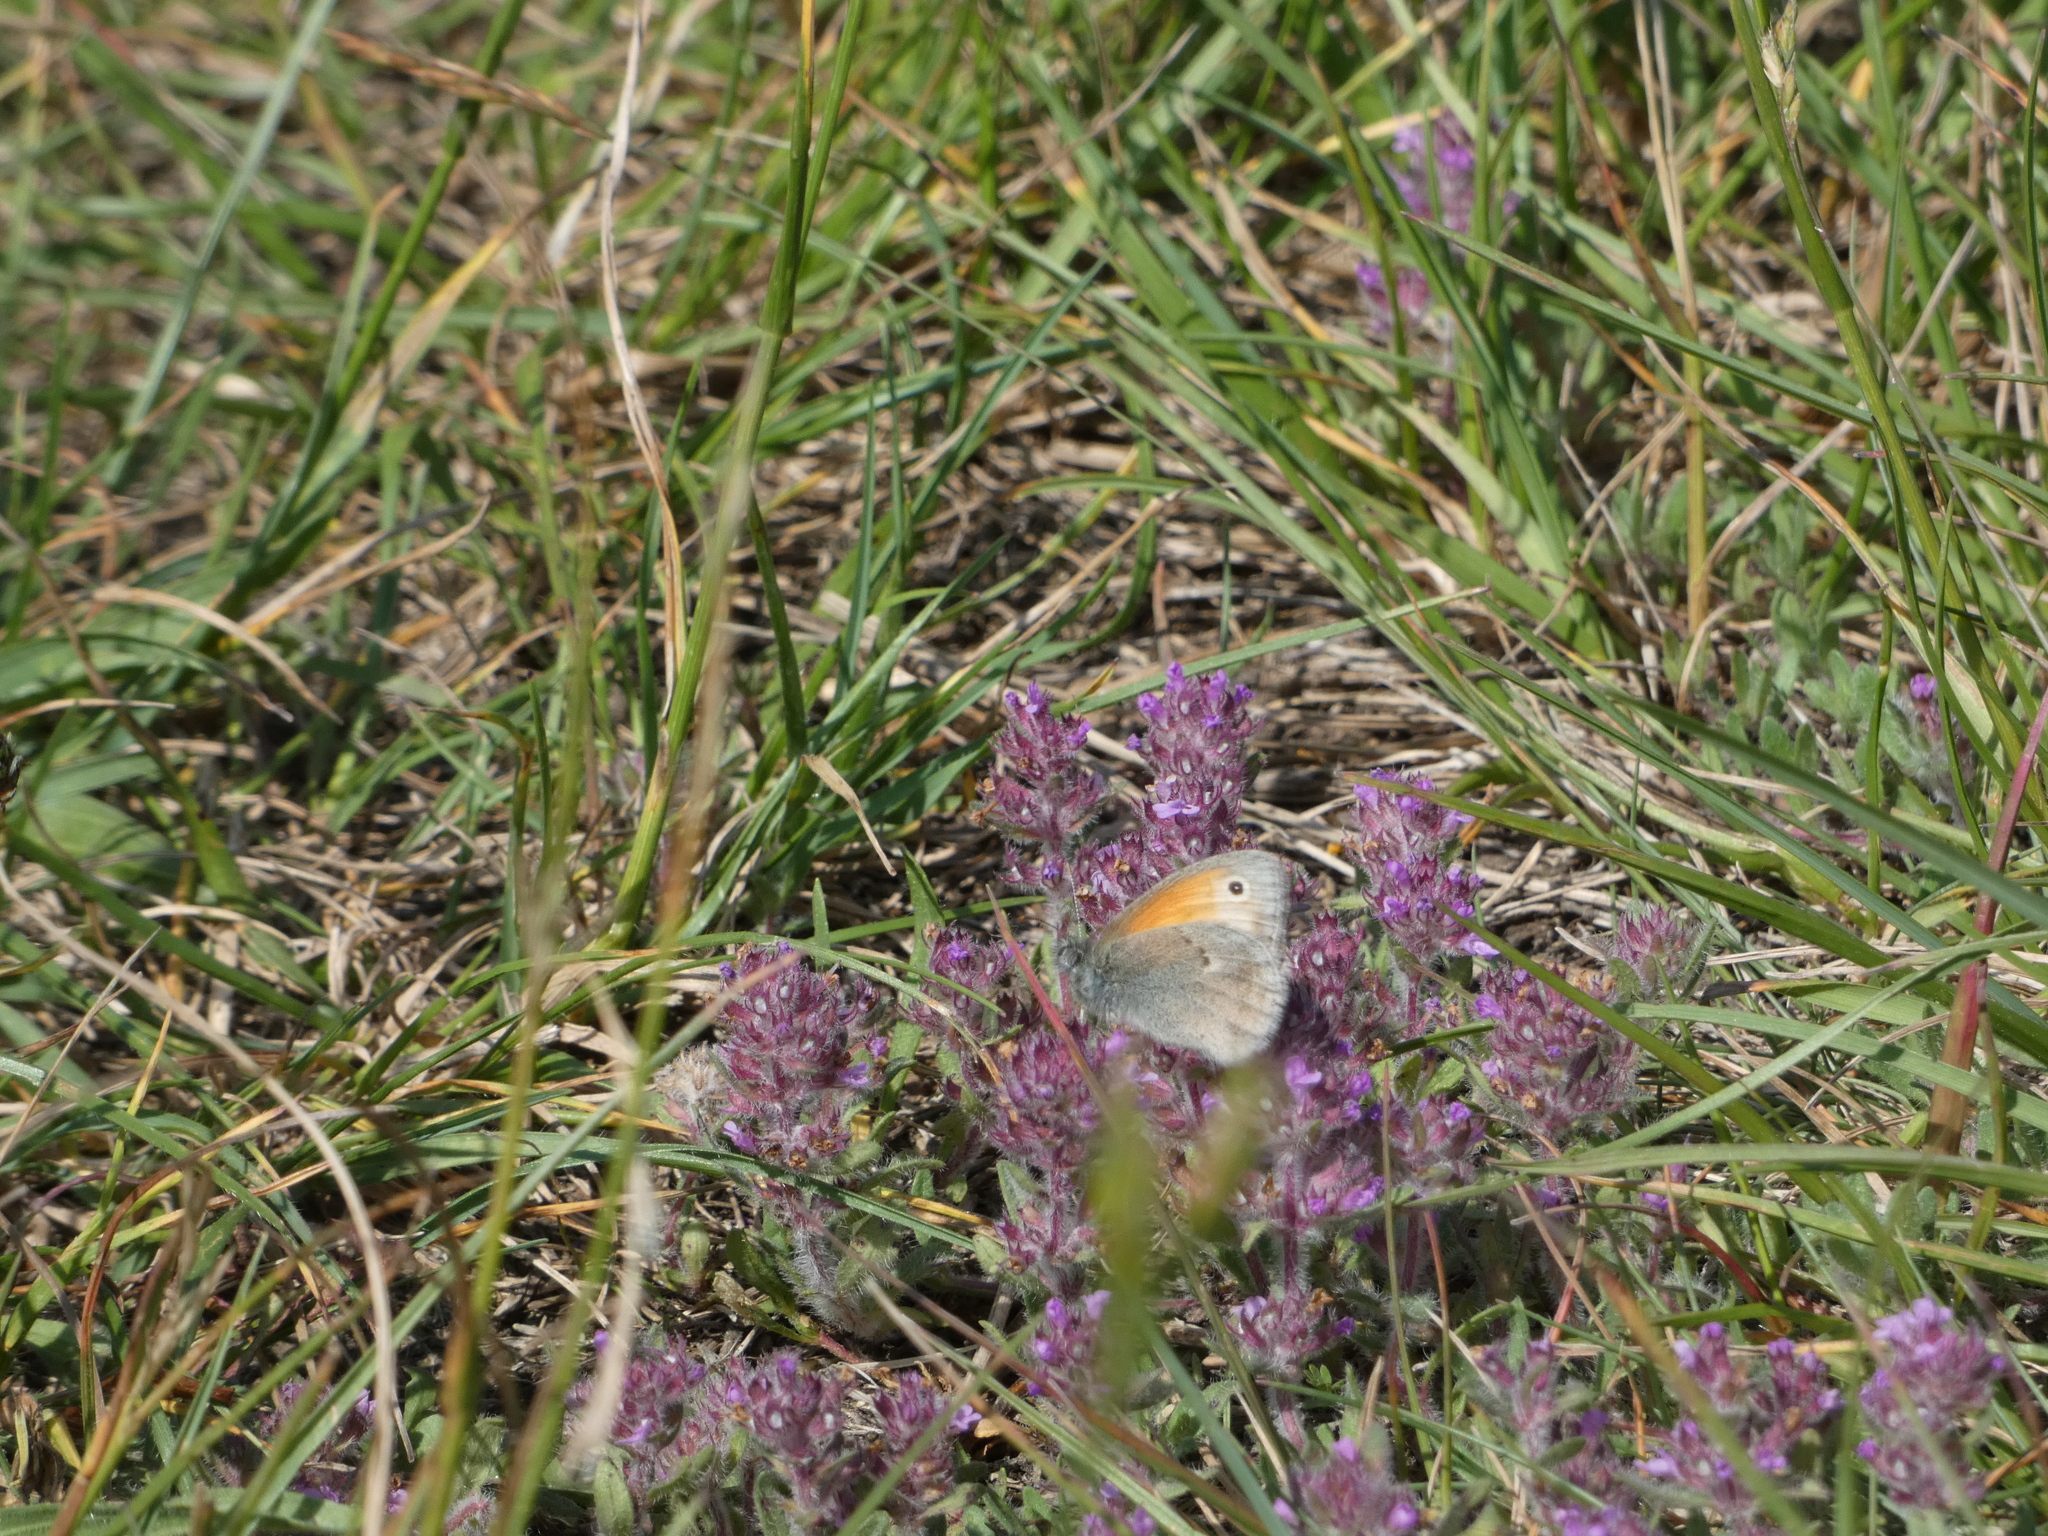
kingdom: Animalia
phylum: Arthropoda
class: Insecta
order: Lepidoptera
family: Nymphalidae
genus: Coenonympha
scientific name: Coenonympha pamphilus
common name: Small heath
